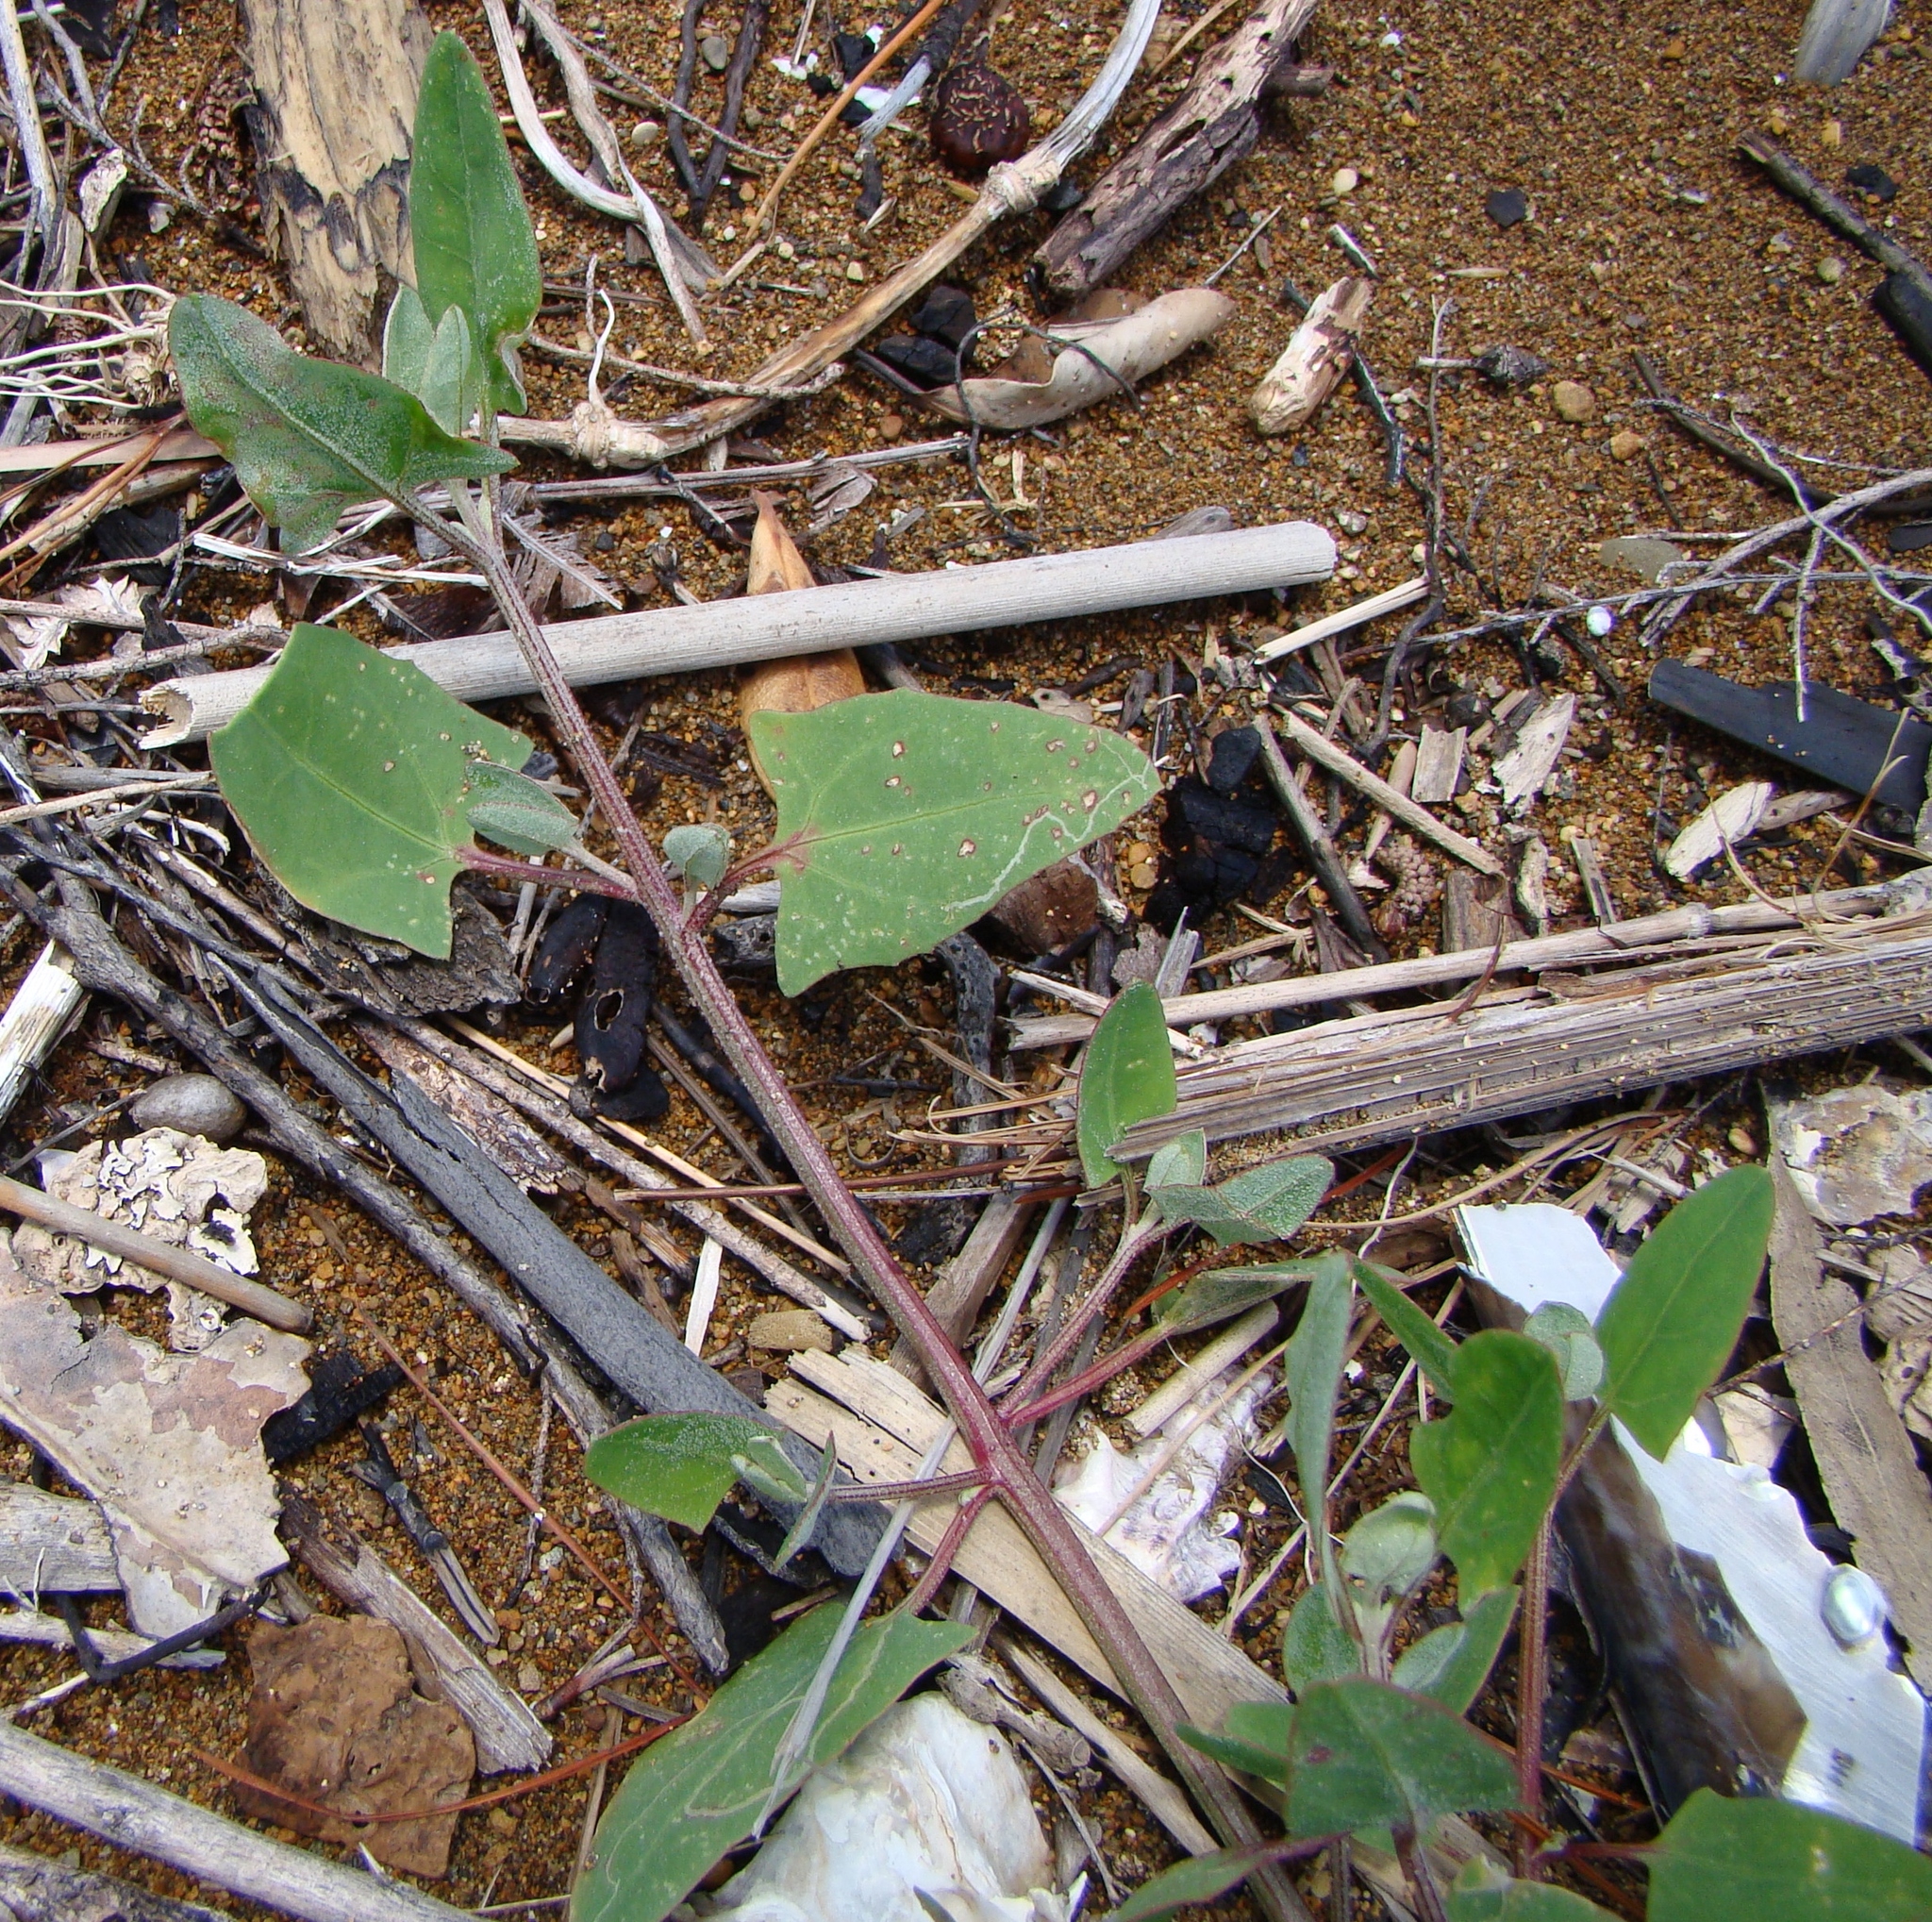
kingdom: Plantae
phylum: Tracheophyta
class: Magnoliopsida
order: Caryophyllales
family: Amaranthaceae
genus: Atriplex
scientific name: Atriplex prostrata
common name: Spear-leaved orache
